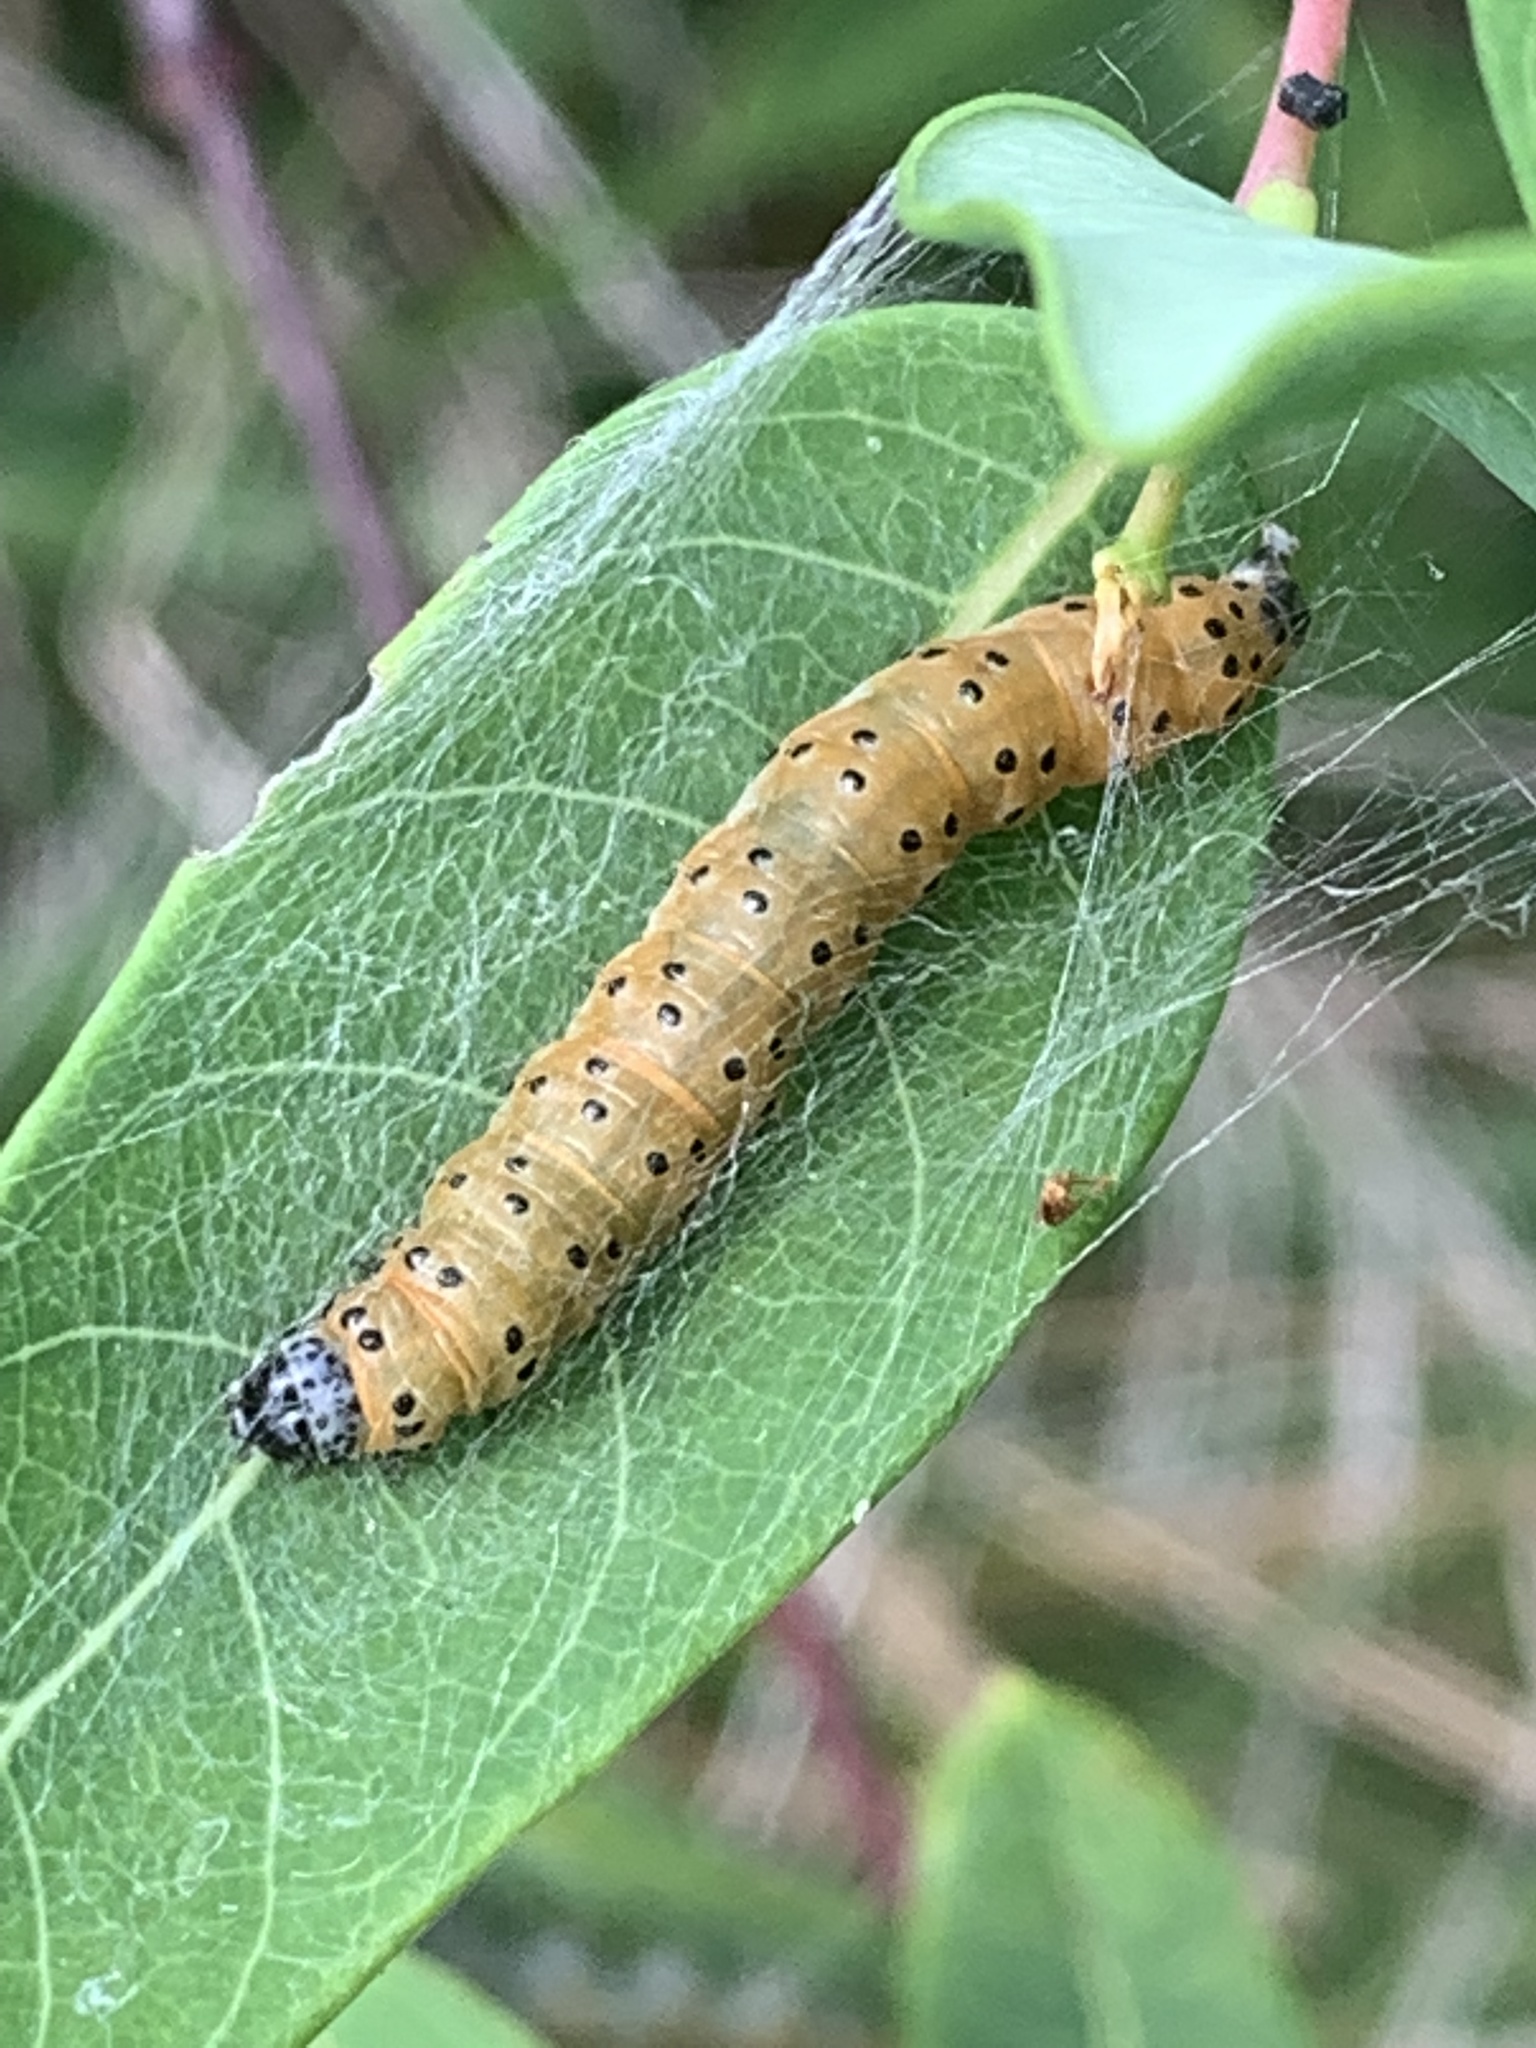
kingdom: Animalia
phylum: Arthropoda
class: Insecta
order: Lepidoptera
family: Crambidae
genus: Saucrobotys
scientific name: Saucrobotys futilalis
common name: Dogbane saucrobotys moth
